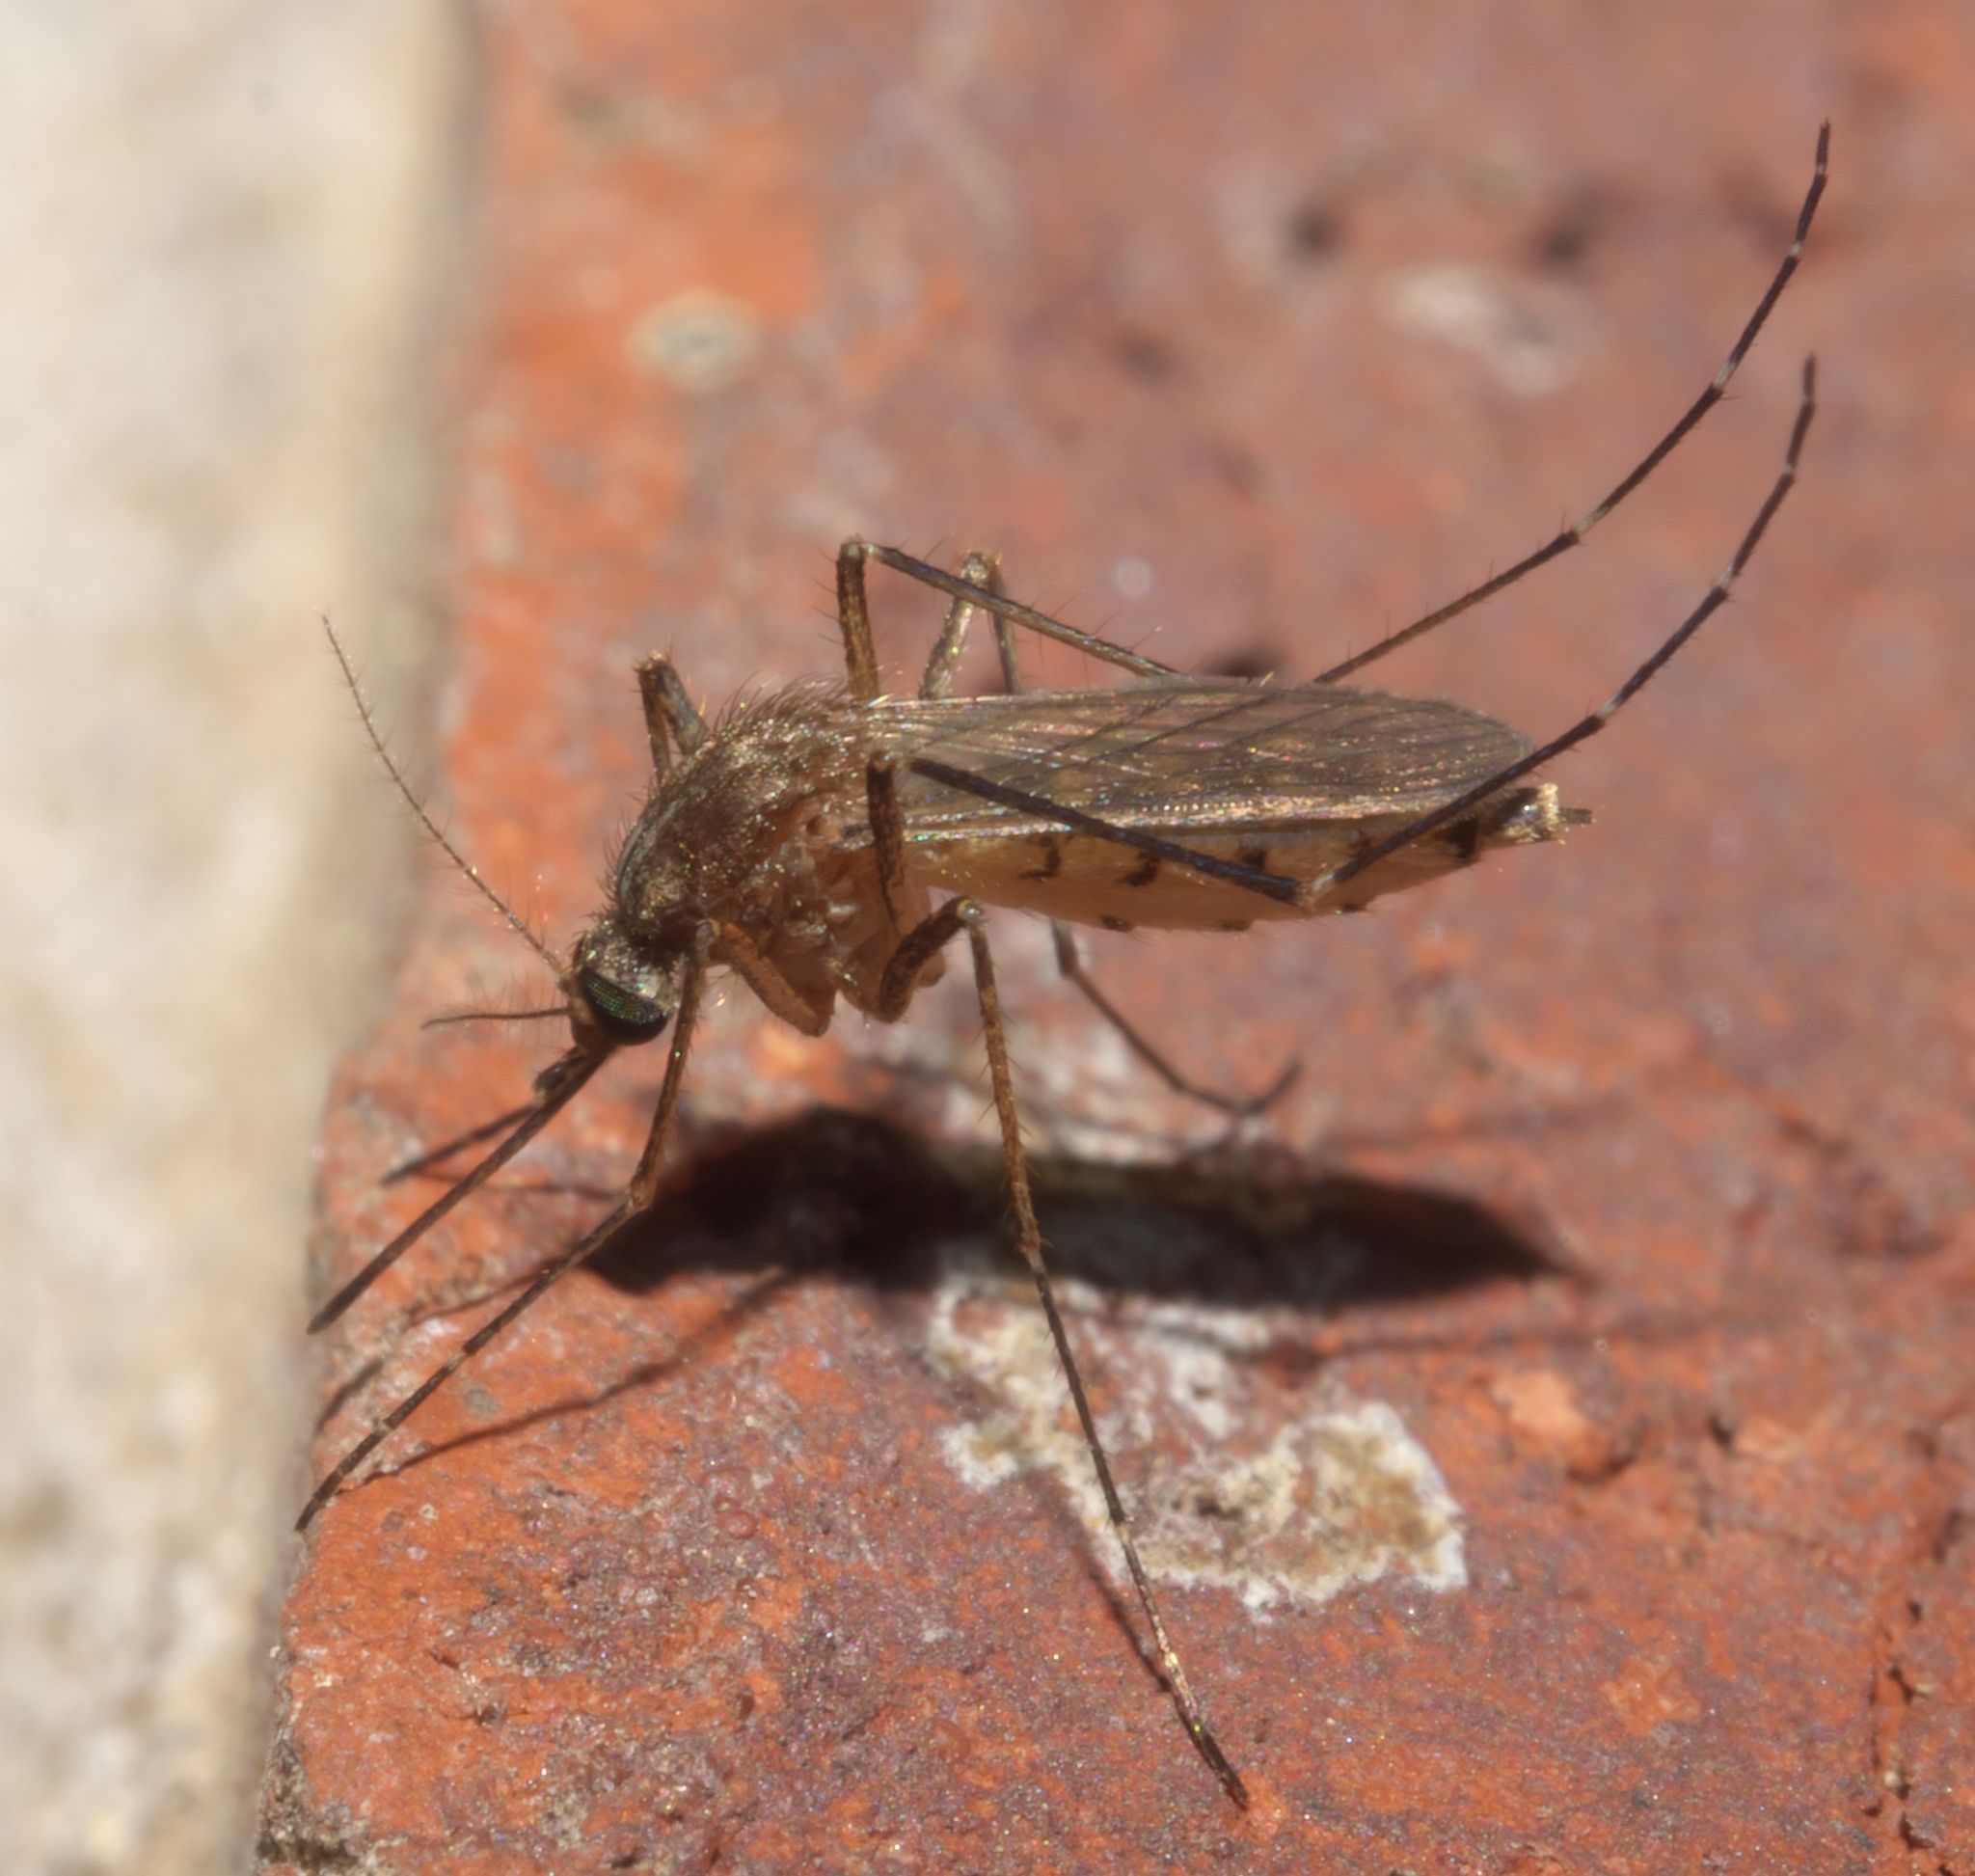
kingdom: Animalia
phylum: Arthropoda
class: Insecta
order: Diptera
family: Culicidae
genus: Aedes
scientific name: Aedes vexans
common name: Inland floodwater mosquito
